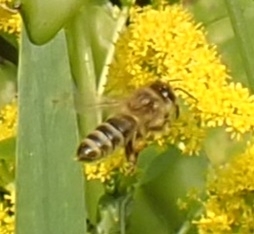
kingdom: Animalia
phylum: Arthropoda
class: Insecta
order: Hymenoptera
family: Apidae
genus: Apis
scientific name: Apis mellifera
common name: Honey bee
